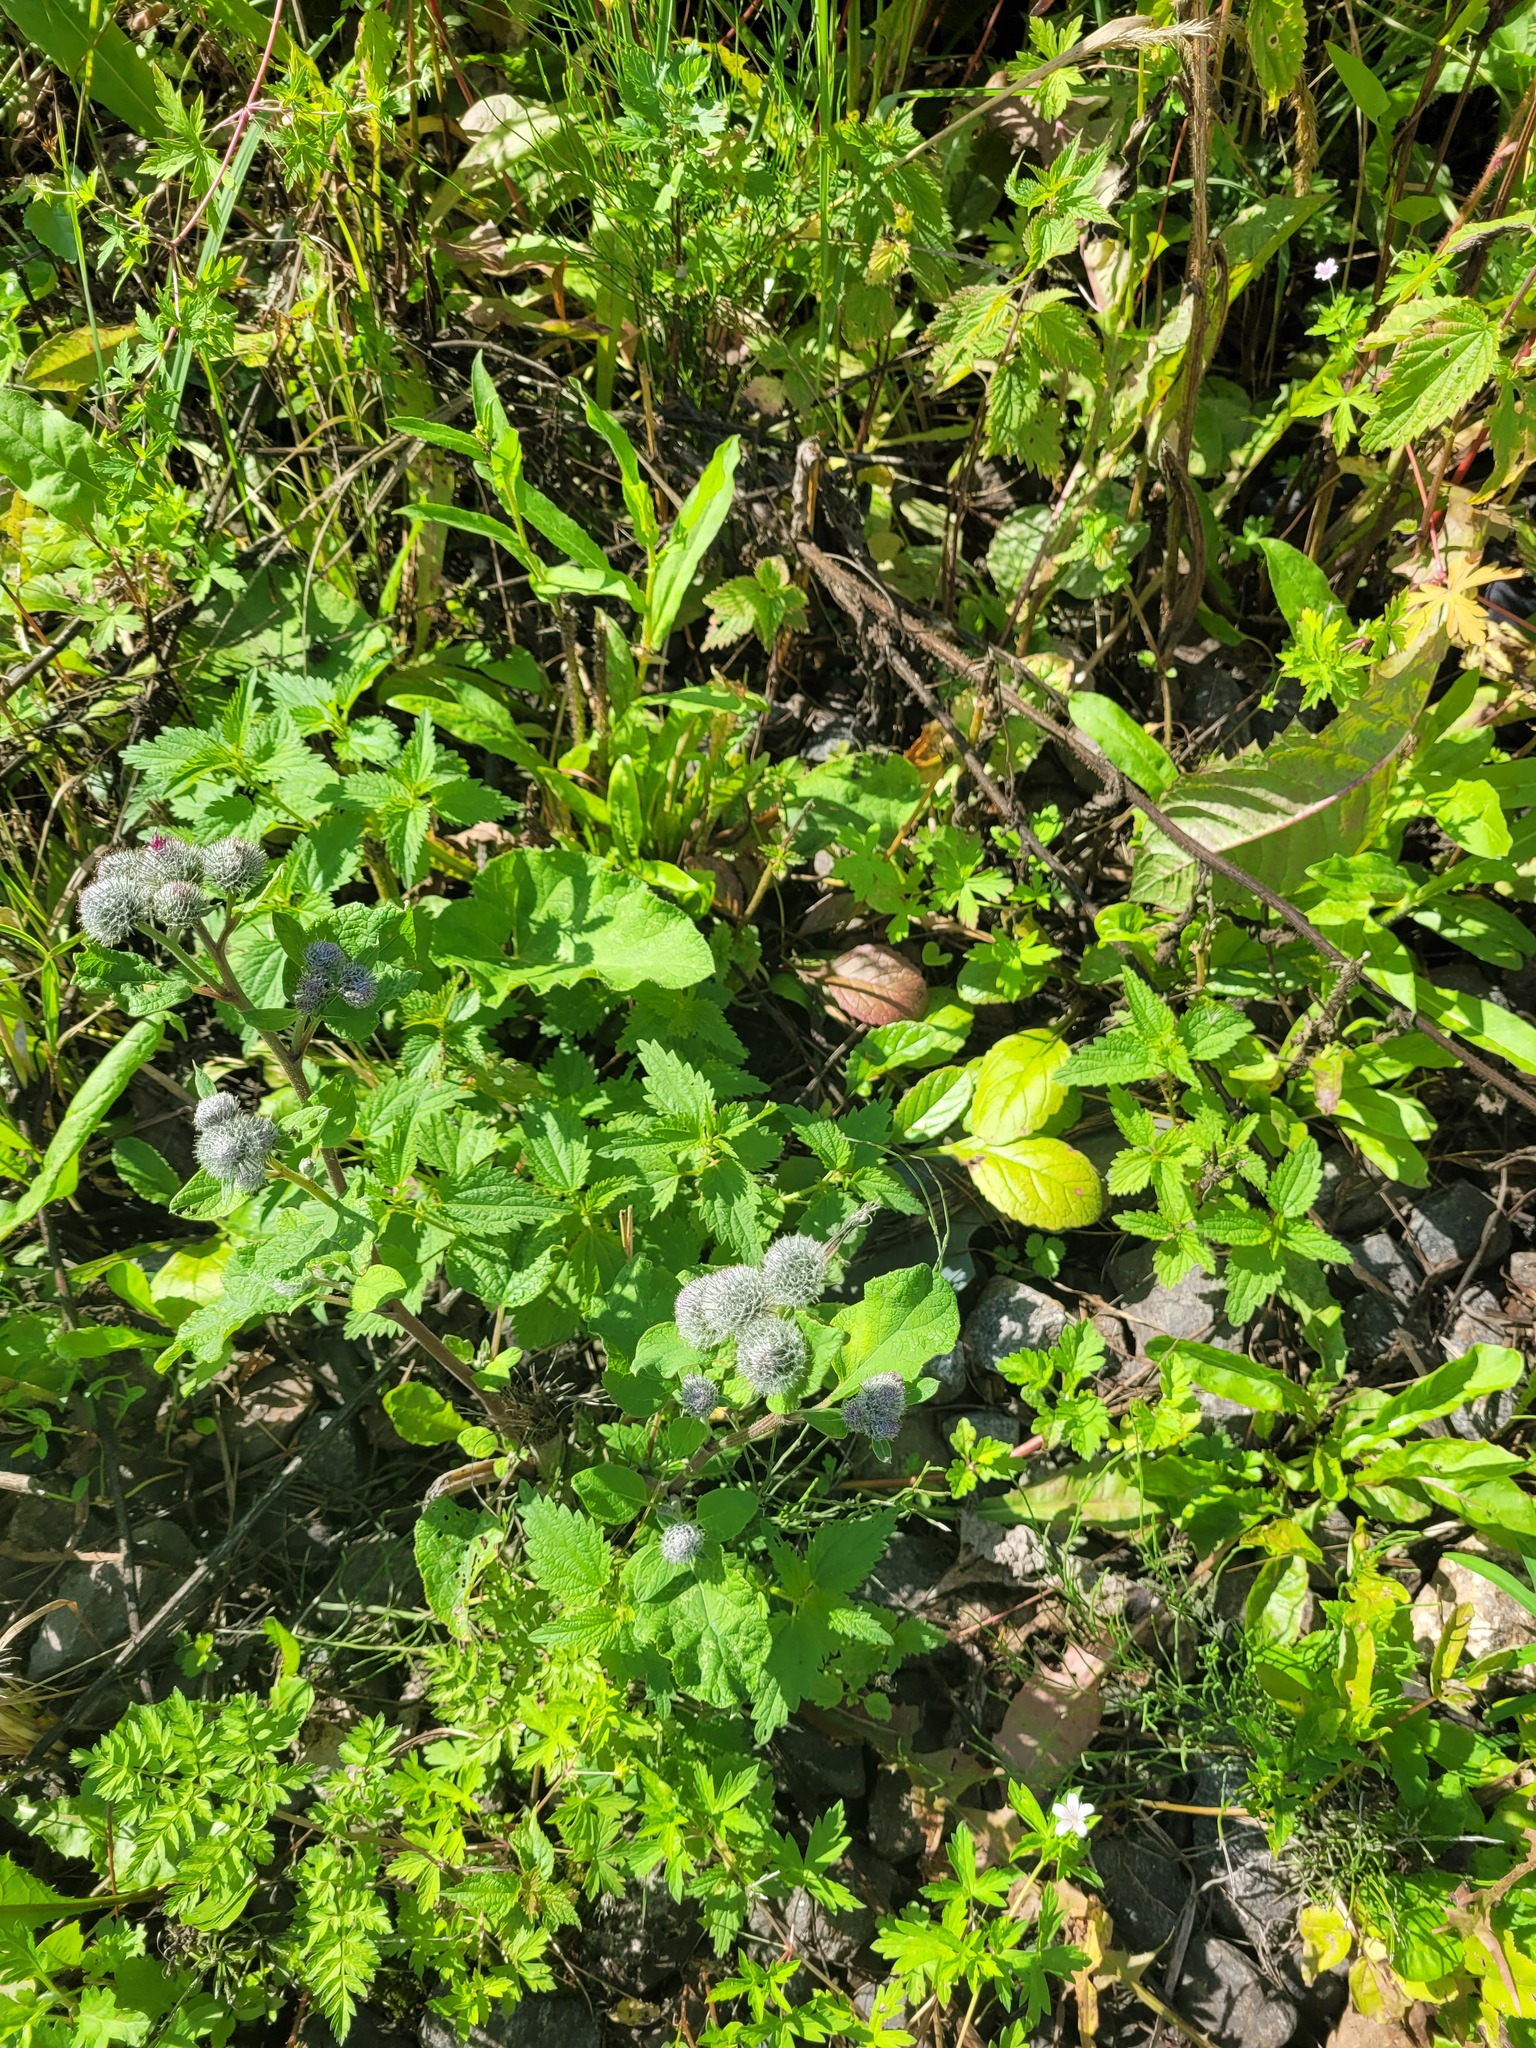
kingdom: Plantae
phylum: Tracheophyta
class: Magnoliopsida
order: Asterales
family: Asteraceae
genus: Arctium
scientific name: Arctium tomentosum
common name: Woolly burdock
